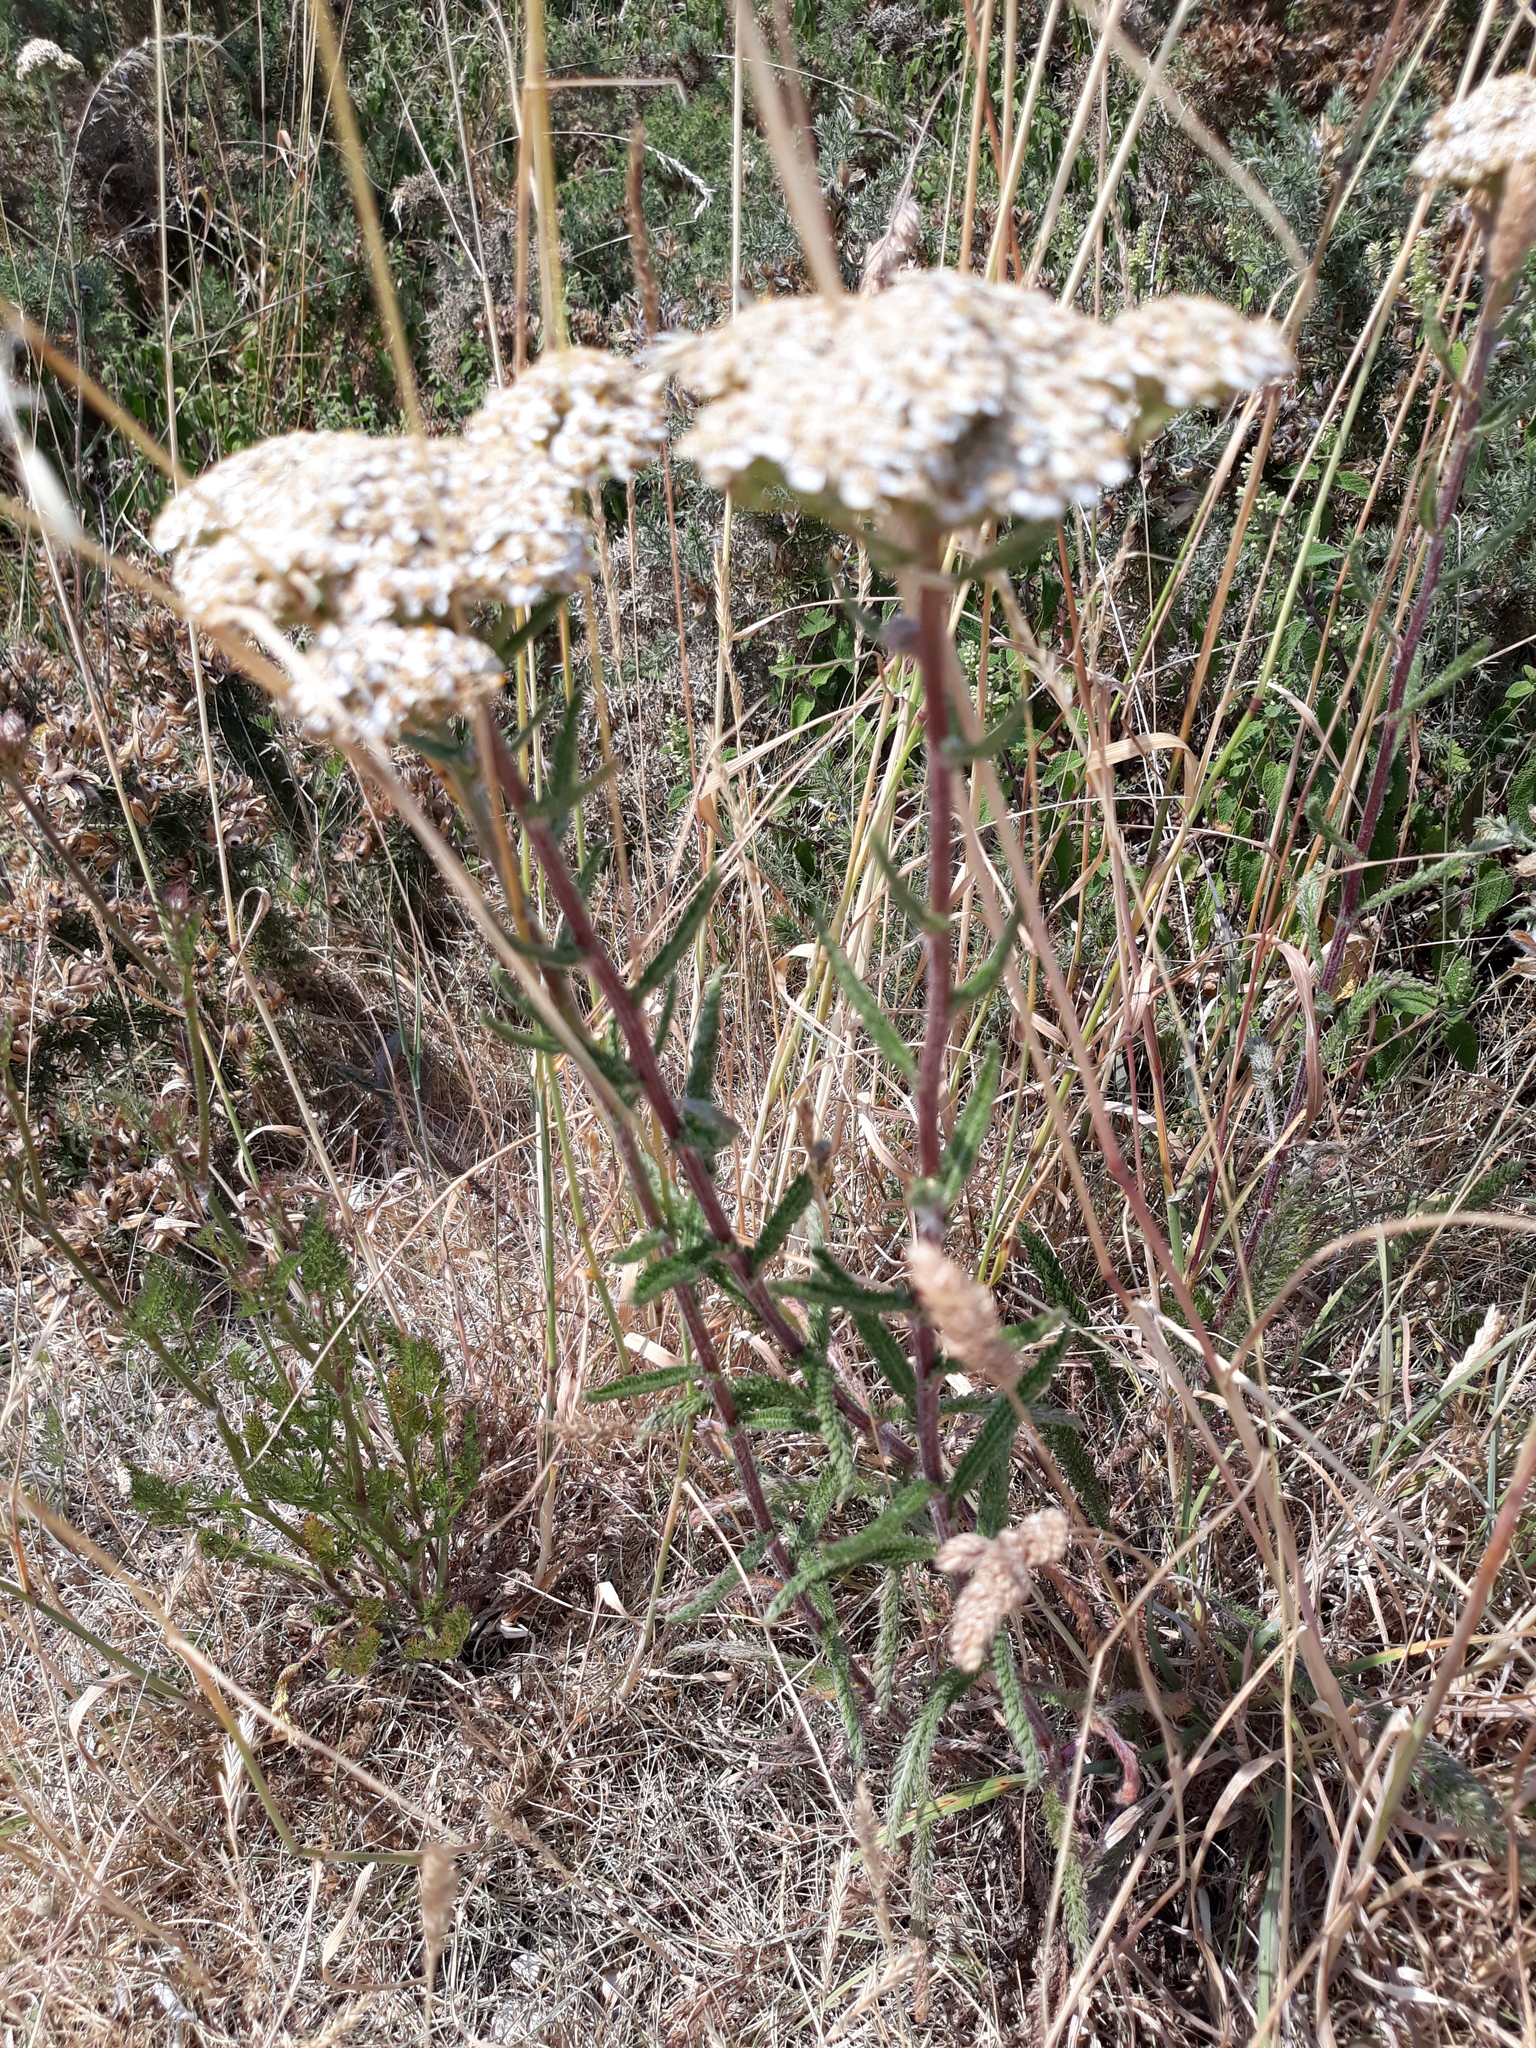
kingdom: Plantae
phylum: Tracheophyta
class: Magnoliopsida
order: Asterales
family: Asteraceae
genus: Achillea
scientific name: Achillea millefolium
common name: Yarrow
